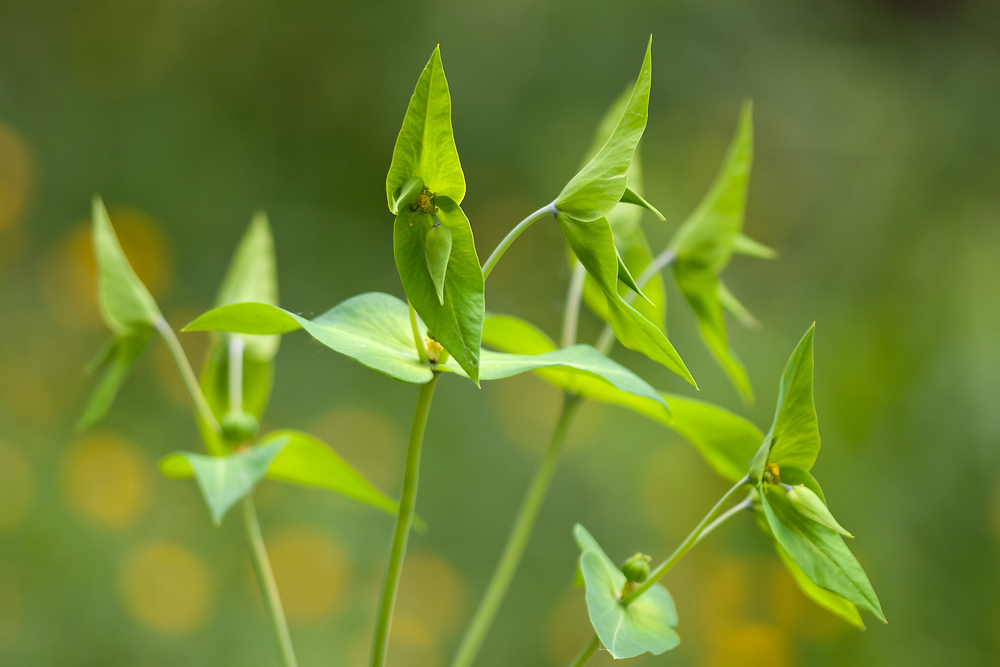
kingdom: Plantae
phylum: Tracheophyta
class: Magnoliopsida
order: Malpighiales
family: Euphorbiaceae
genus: Euphorbia
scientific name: Euphorbia lathyris
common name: Caper spurge
